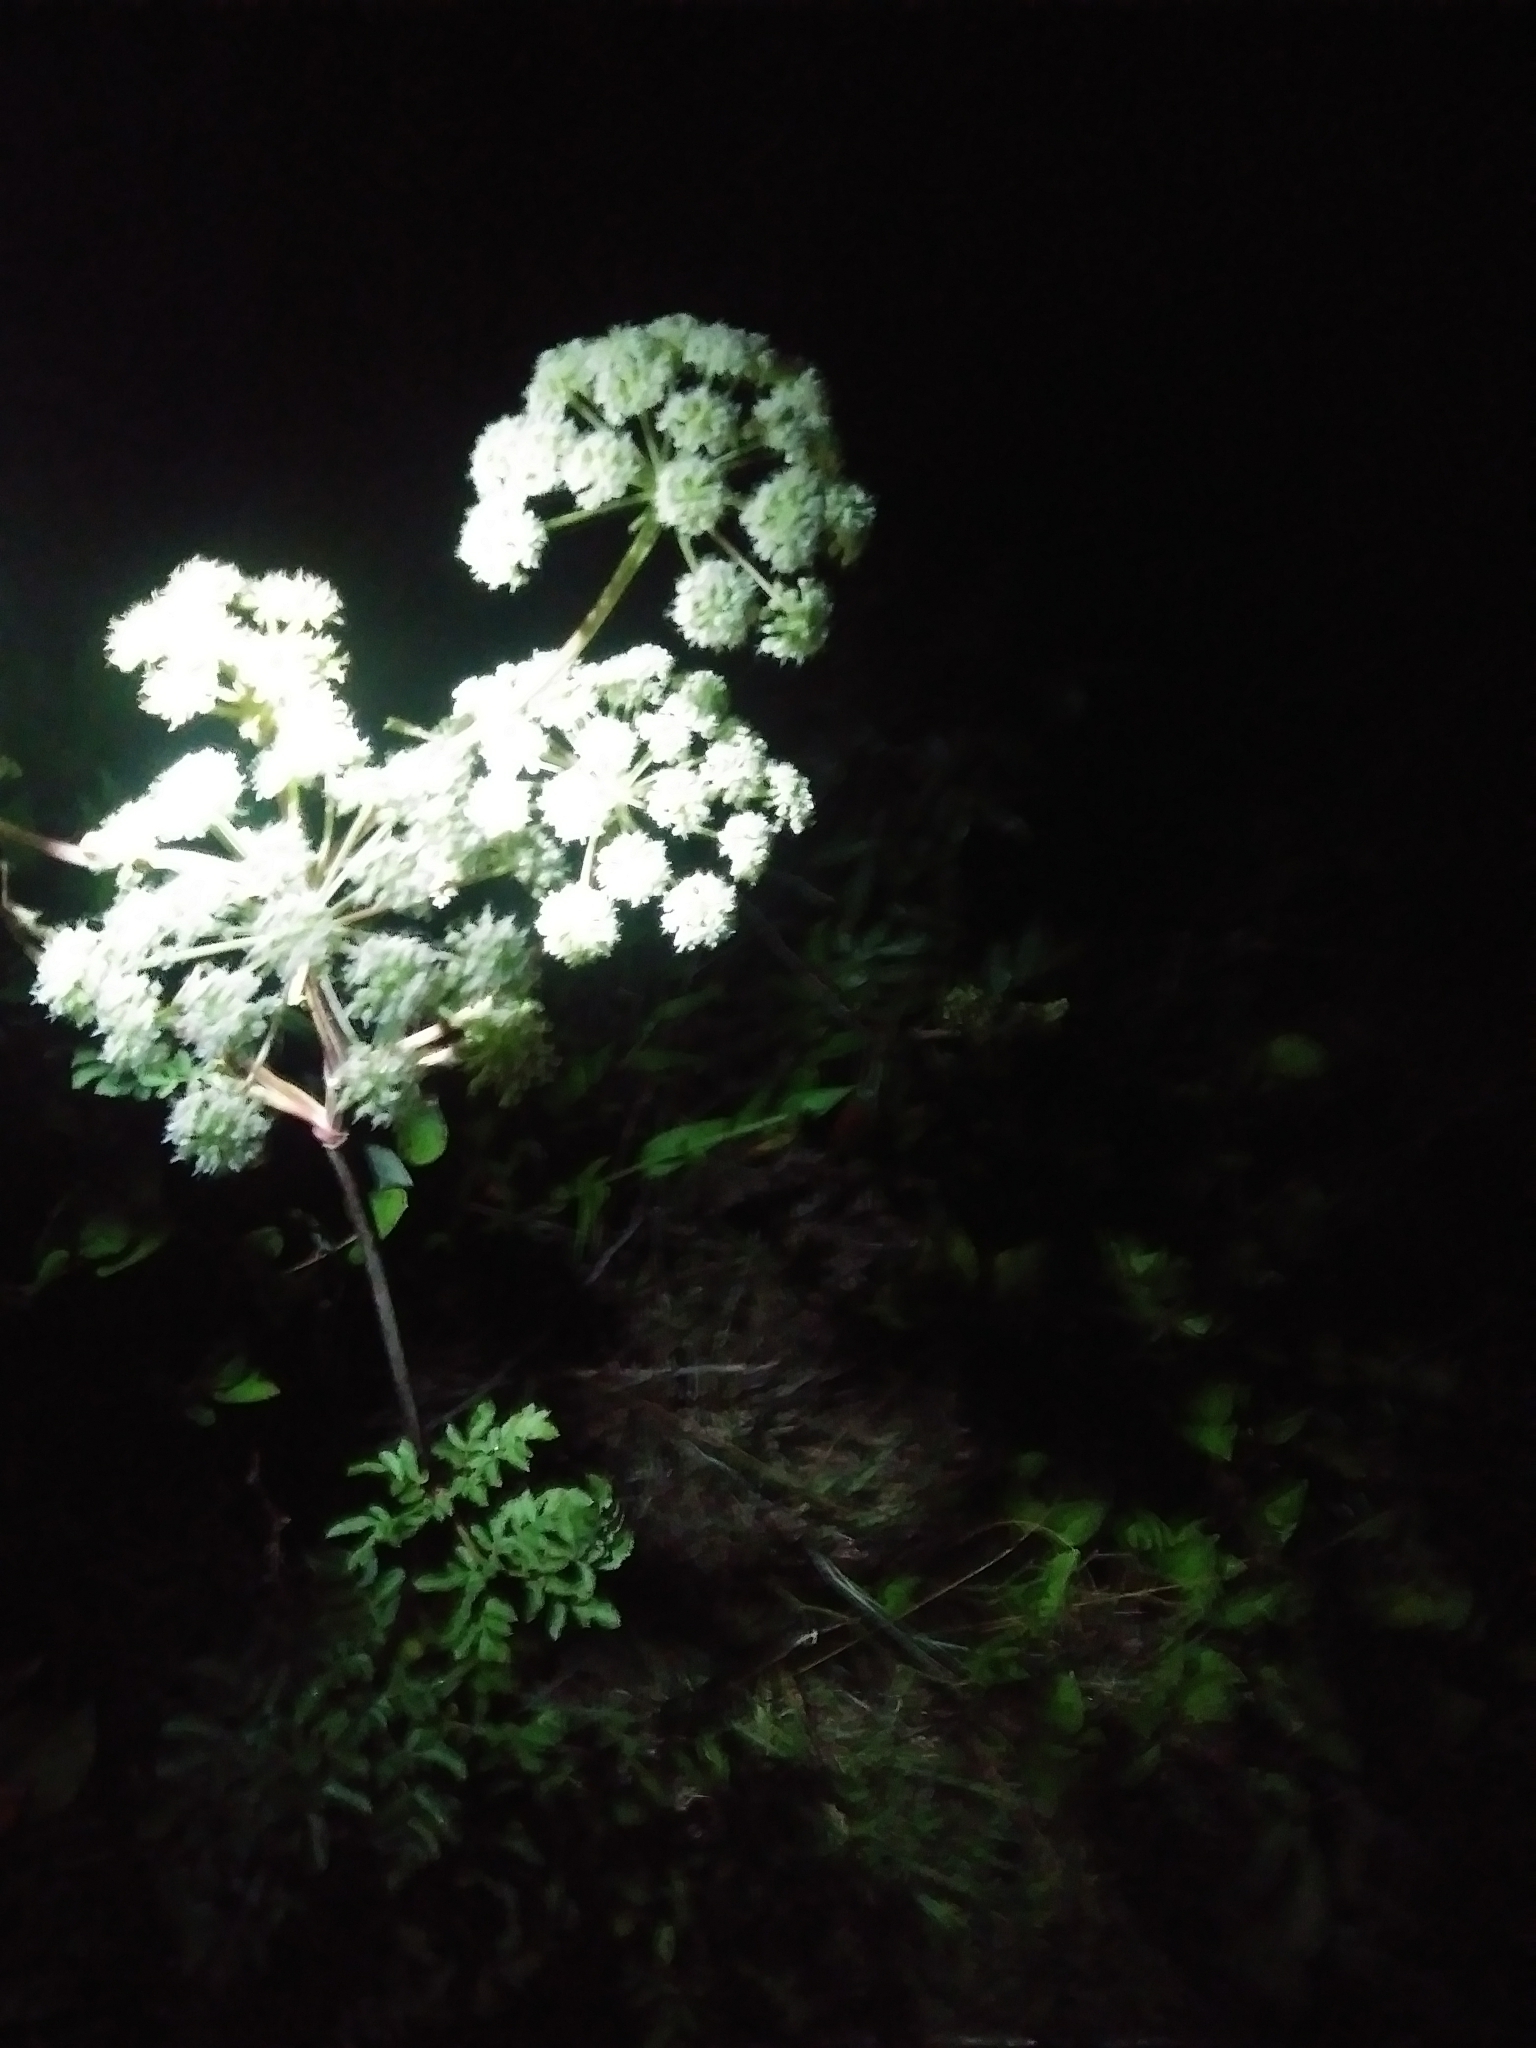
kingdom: Plantae
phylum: Tracheophyta
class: Magnoliopsida
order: Apiales
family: Apiaceae
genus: Angelica
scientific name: Angelica venenosa
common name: Hairy angelica
